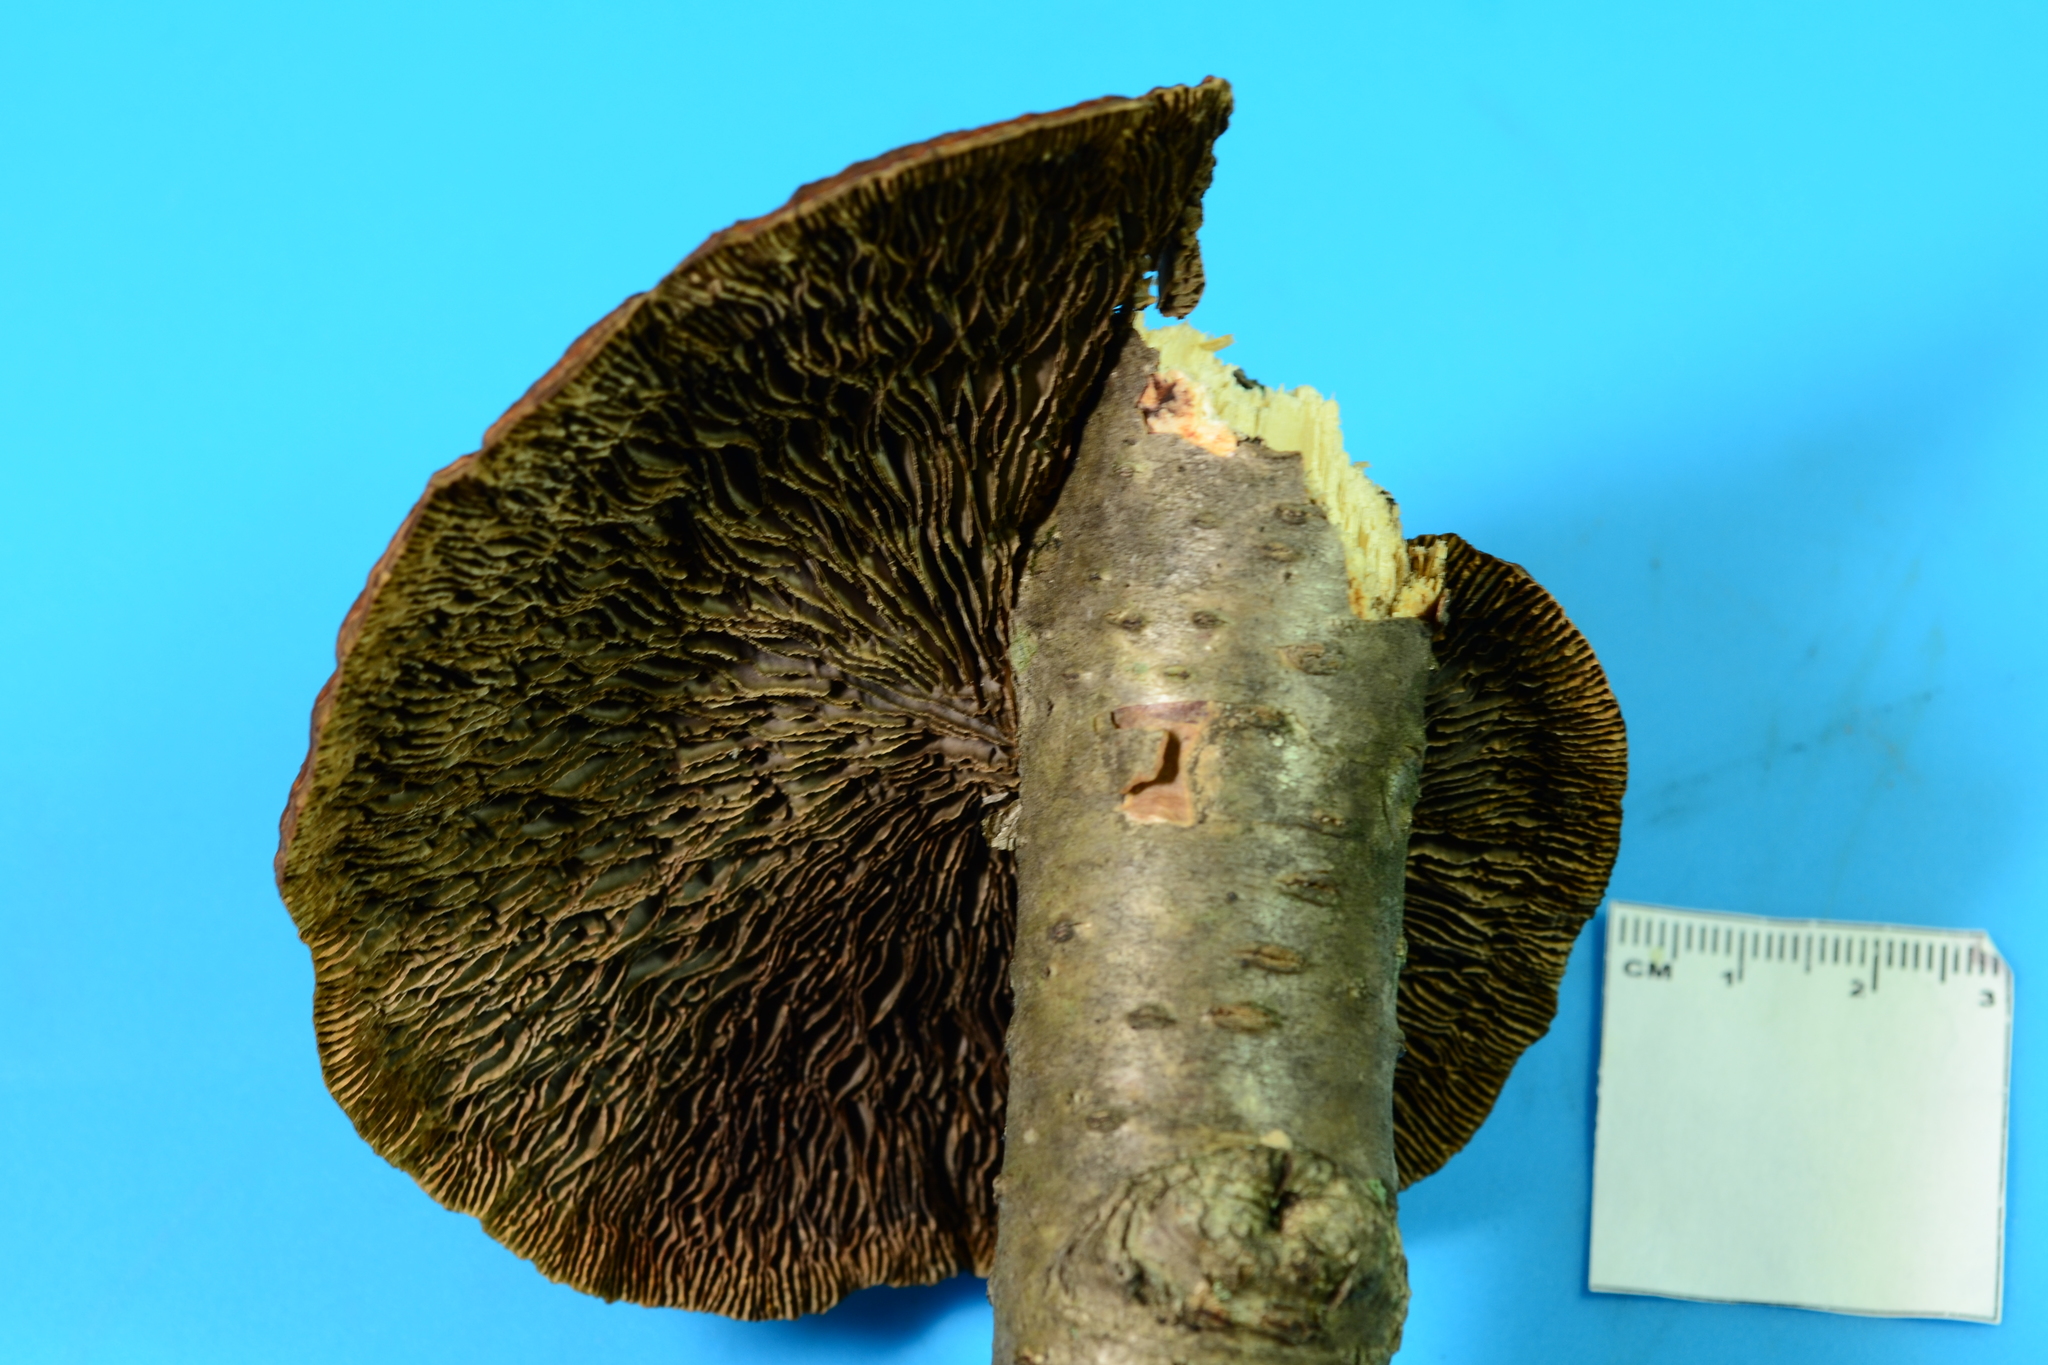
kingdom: Fungi
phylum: Basidiomycota
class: Agaricomycetes
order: Polyporales
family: Polyporaceae
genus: Daedaleopsis
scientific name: Daedaleopsis septentrionalis
